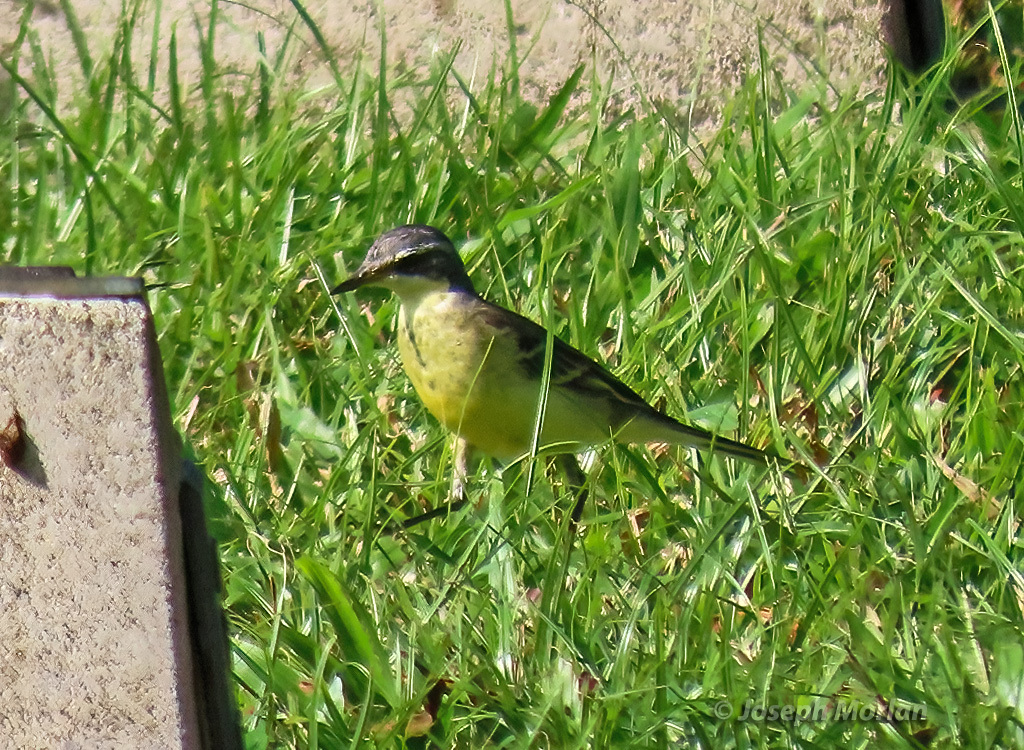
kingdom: Animalia
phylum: Chordata
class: Aves
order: Passeriformes
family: Motacillidae
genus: Motacilla
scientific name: Motacilla tschutschensis
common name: Eastern yellow wagtail
